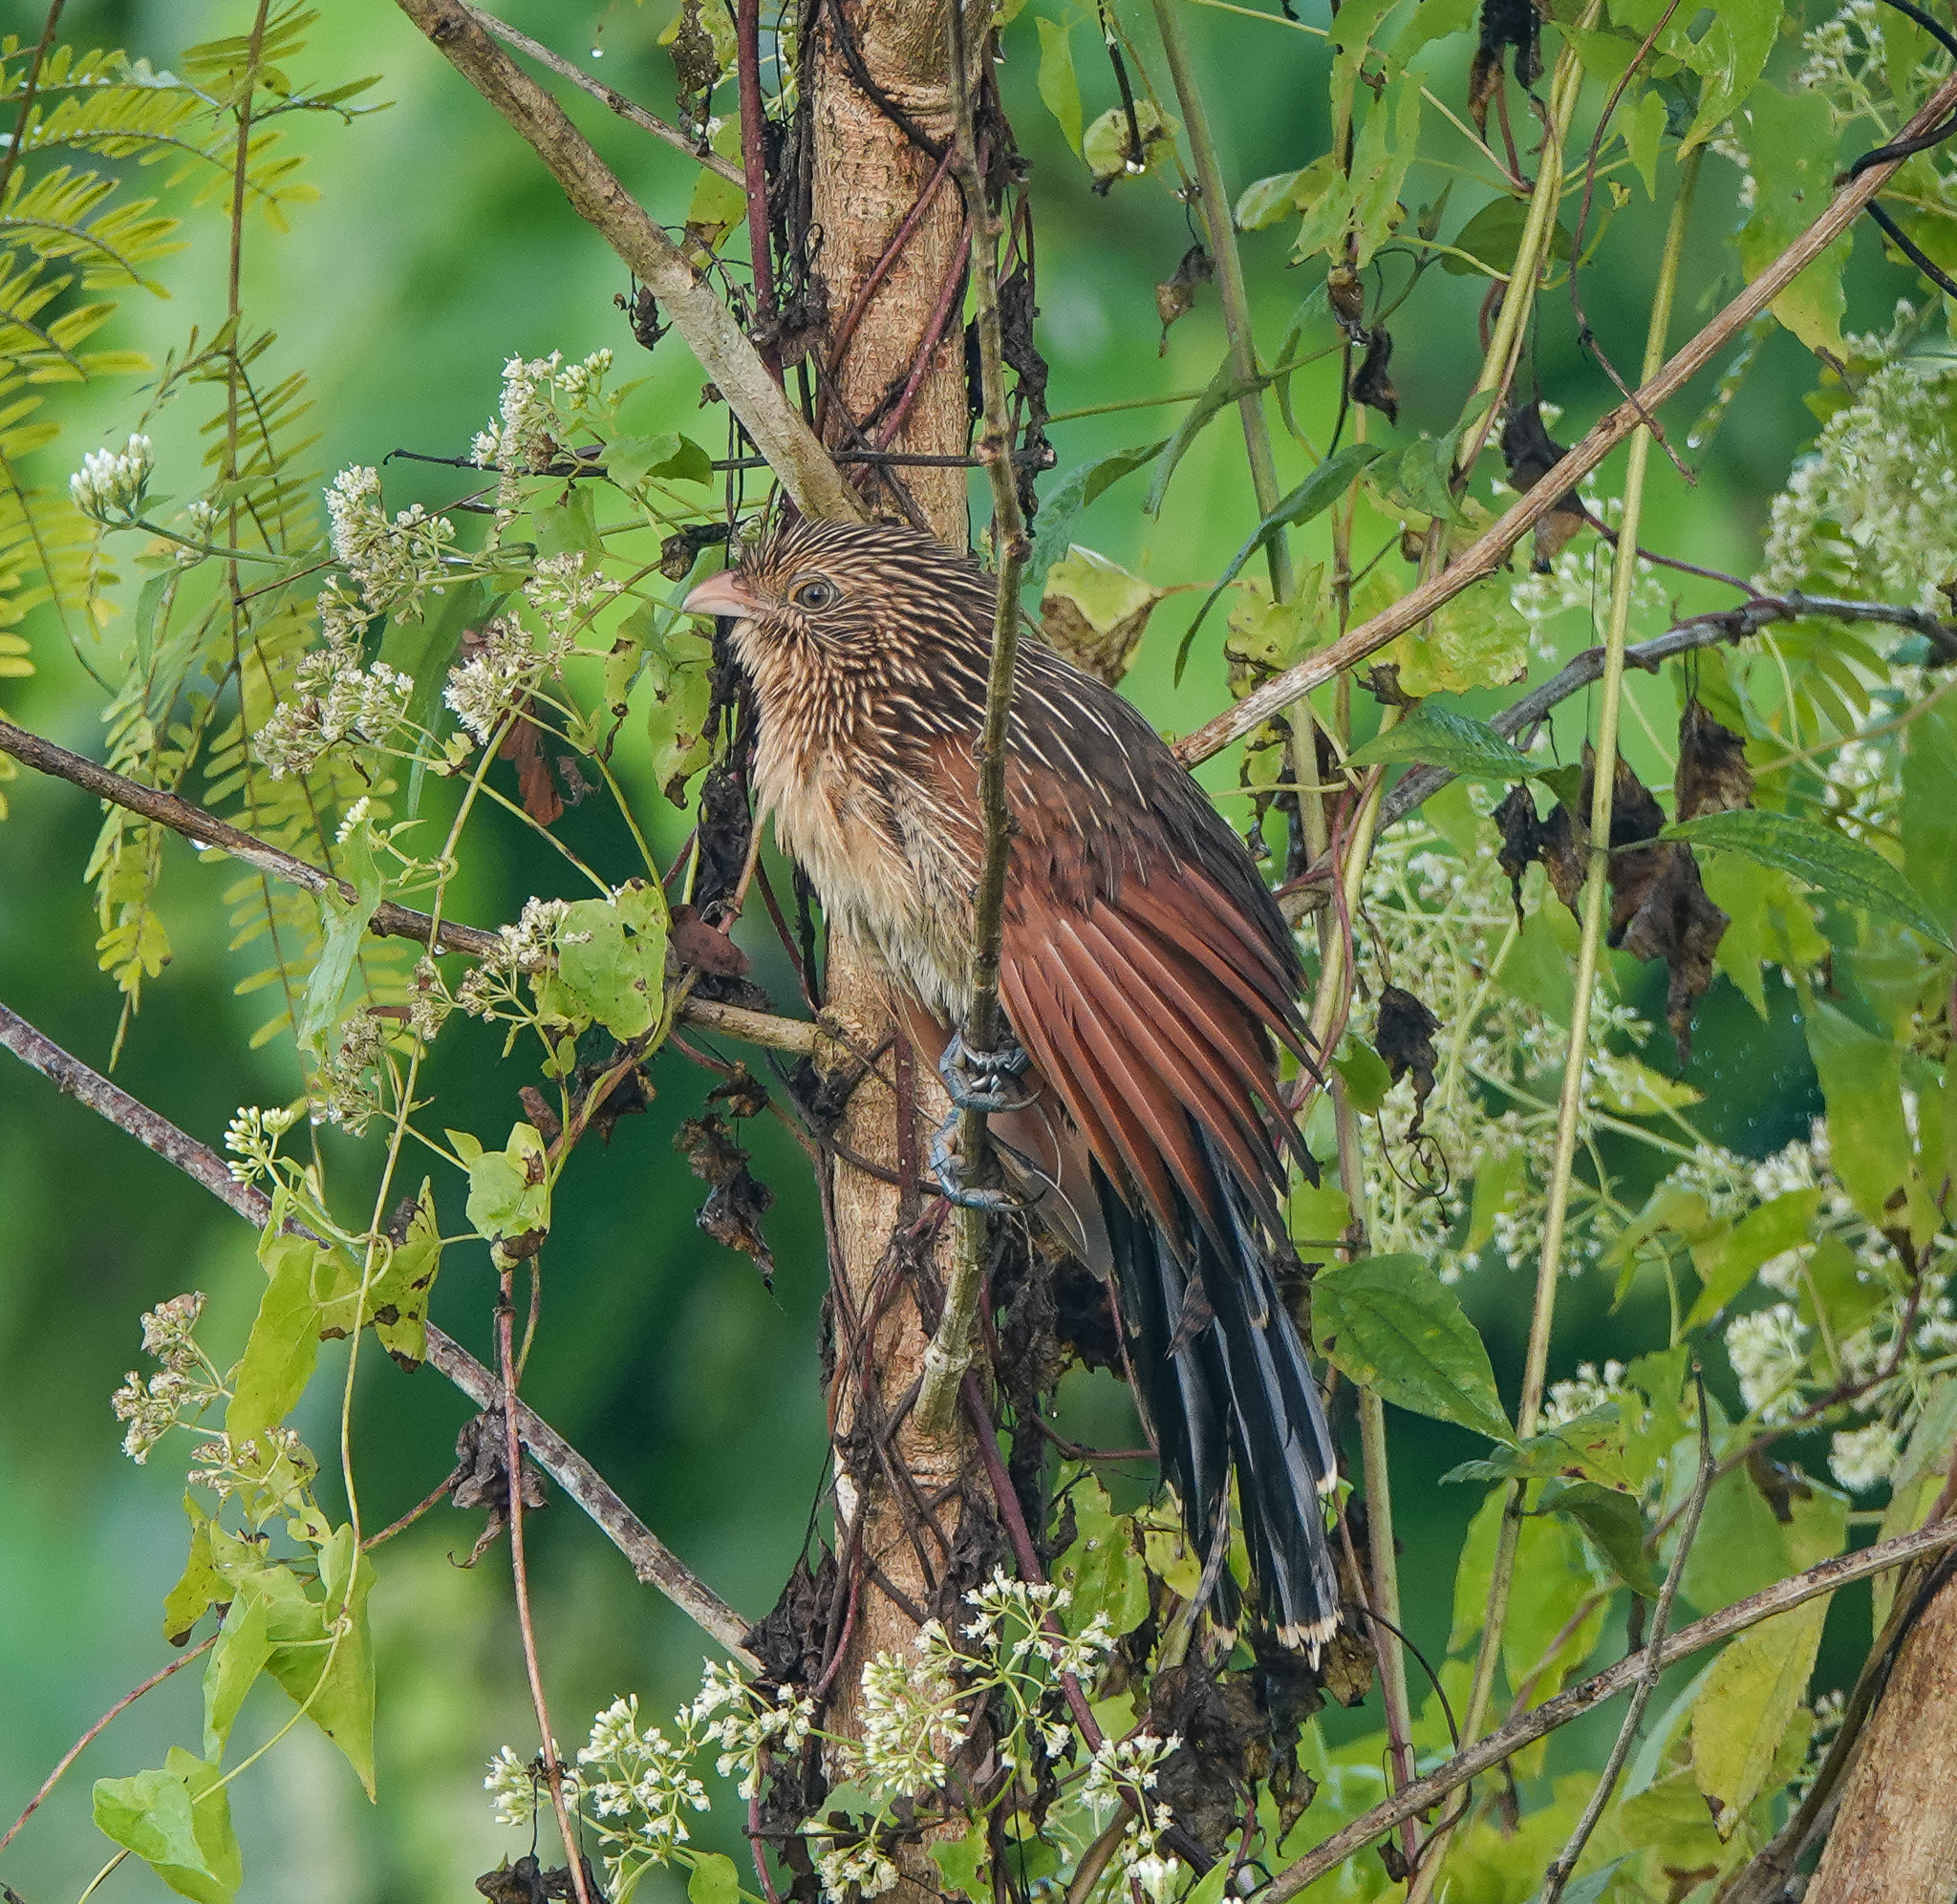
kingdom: Animalia
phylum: Chordata
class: Aves
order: Cuculiformes
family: Cuculidae
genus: Centropus
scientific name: Centropus bengalensis
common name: Lesser coucal
